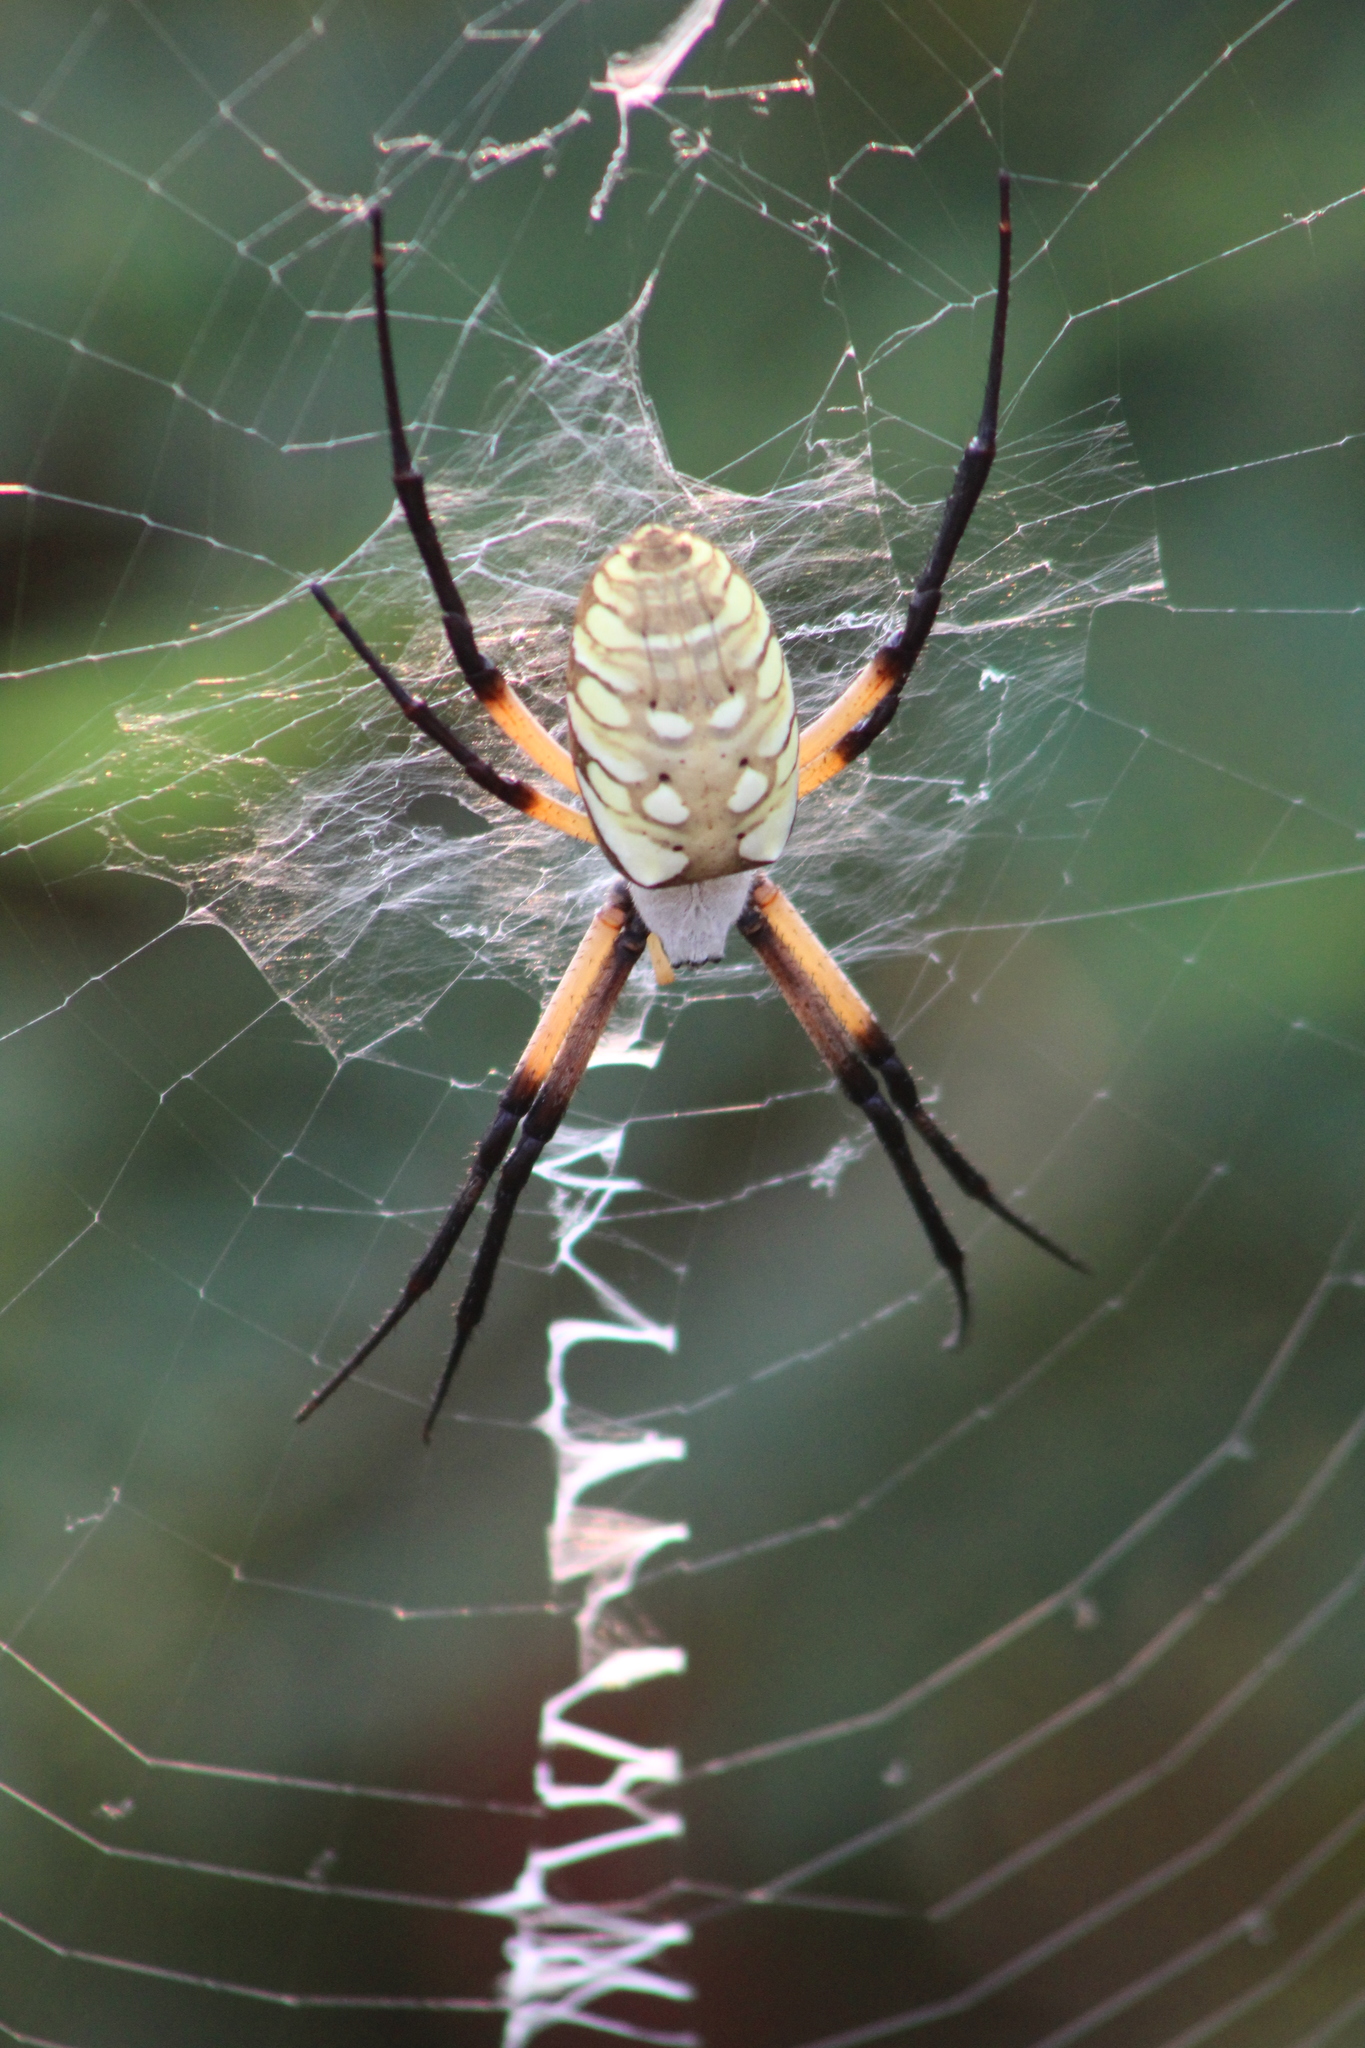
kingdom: Animalia
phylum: Arthropoda
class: Arachnida
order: Araneae
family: Araneidae
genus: Argiope
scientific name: Argiope aurantia
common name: Orb weavers
